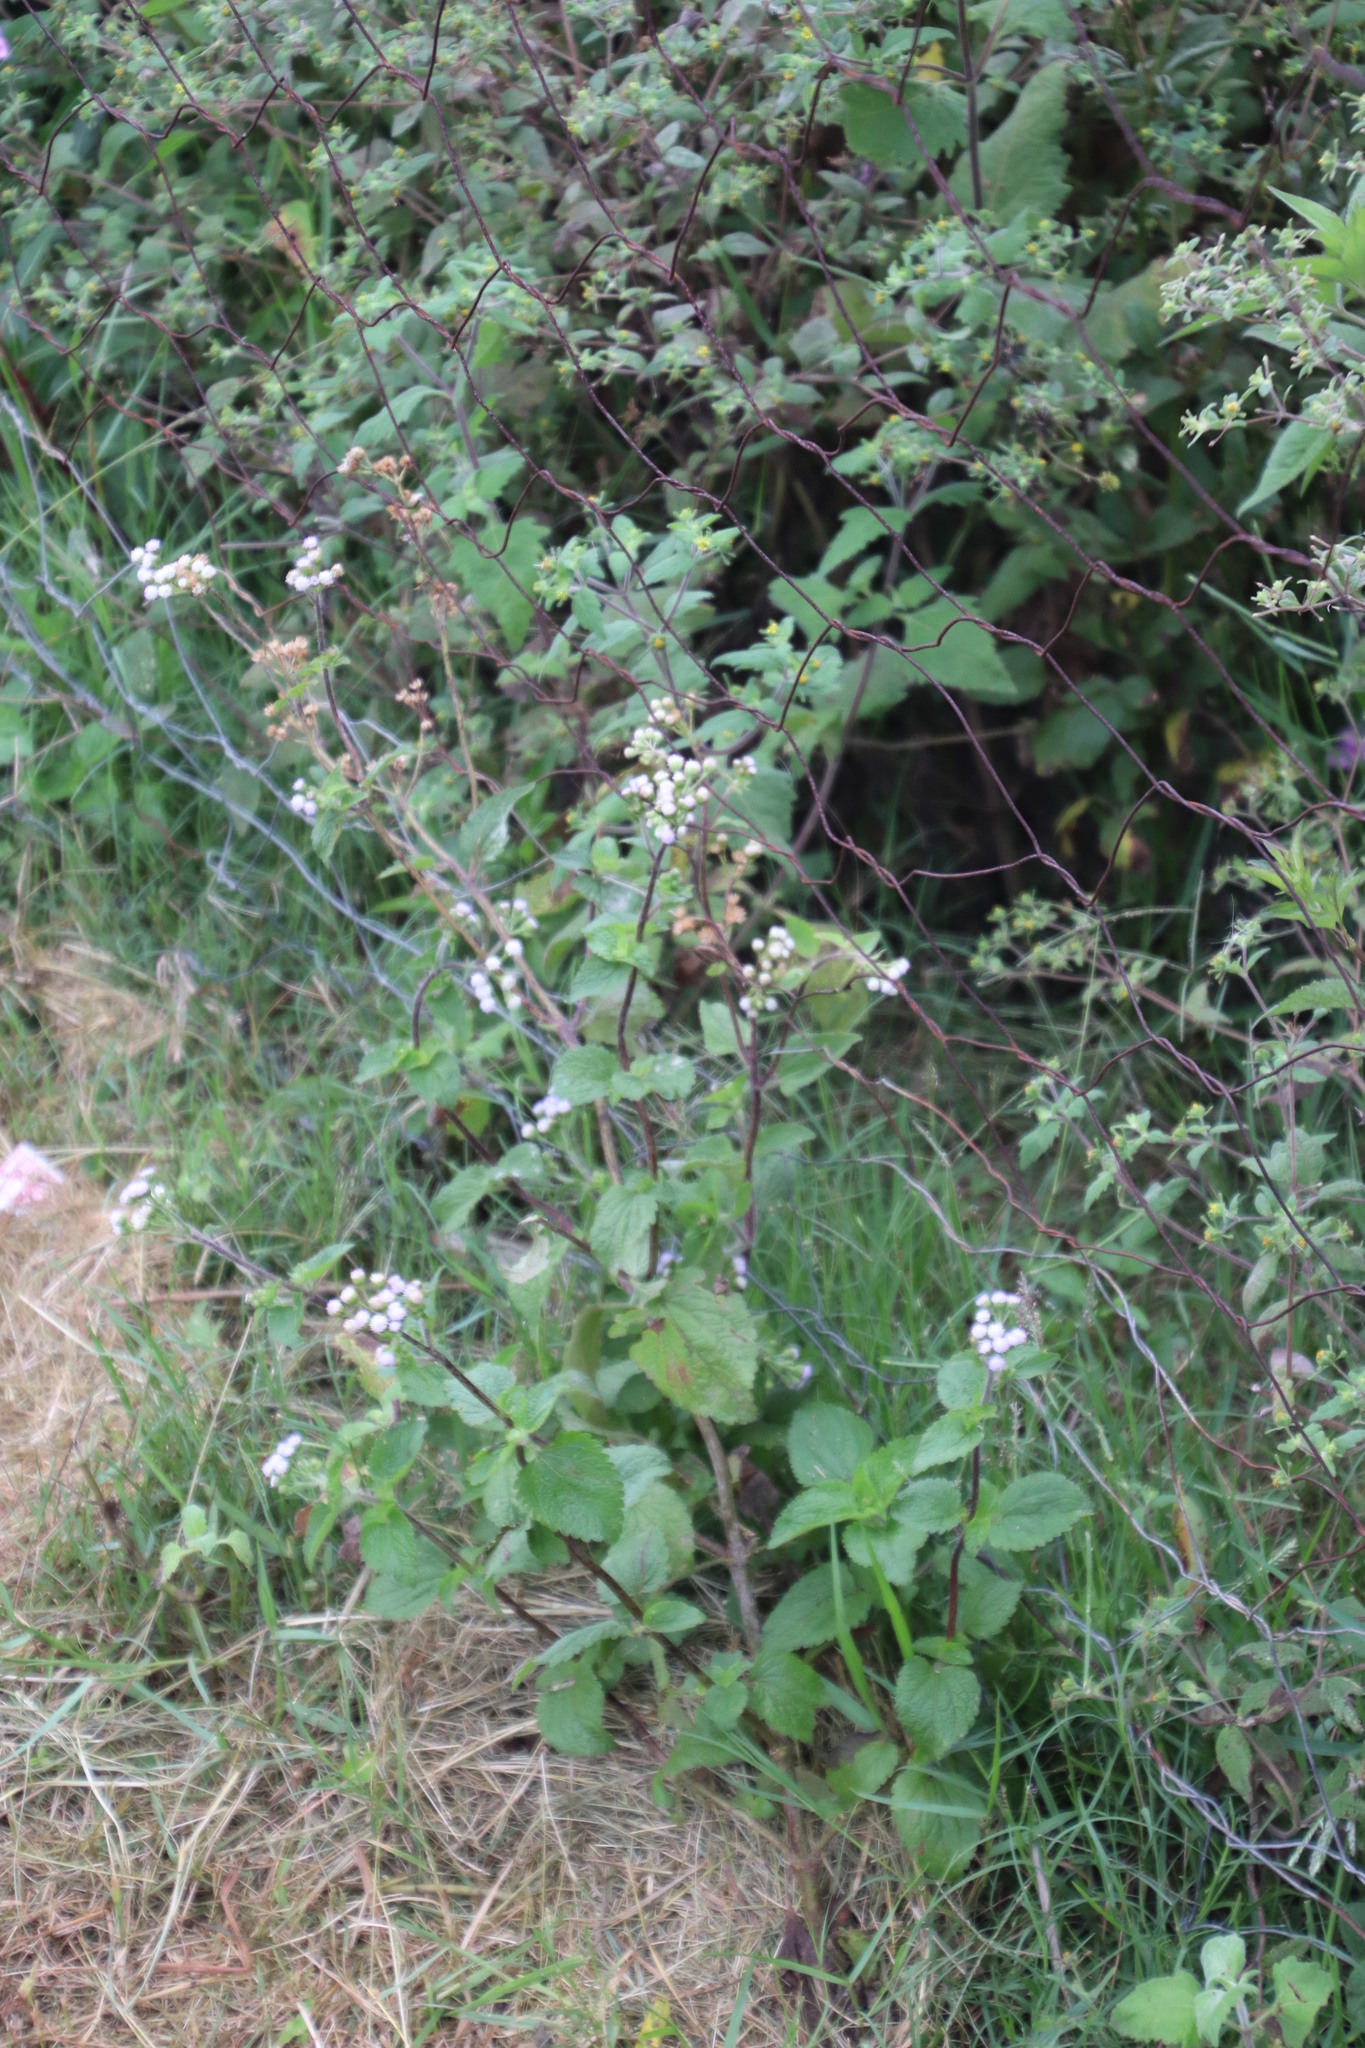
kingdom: Plantae
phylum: Tracheophyta
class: Magnoliopsida
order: Asterales
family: Asteraceae
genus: Ageratum
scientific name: Ageratum conyzoides
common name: Tropical whiteweed
